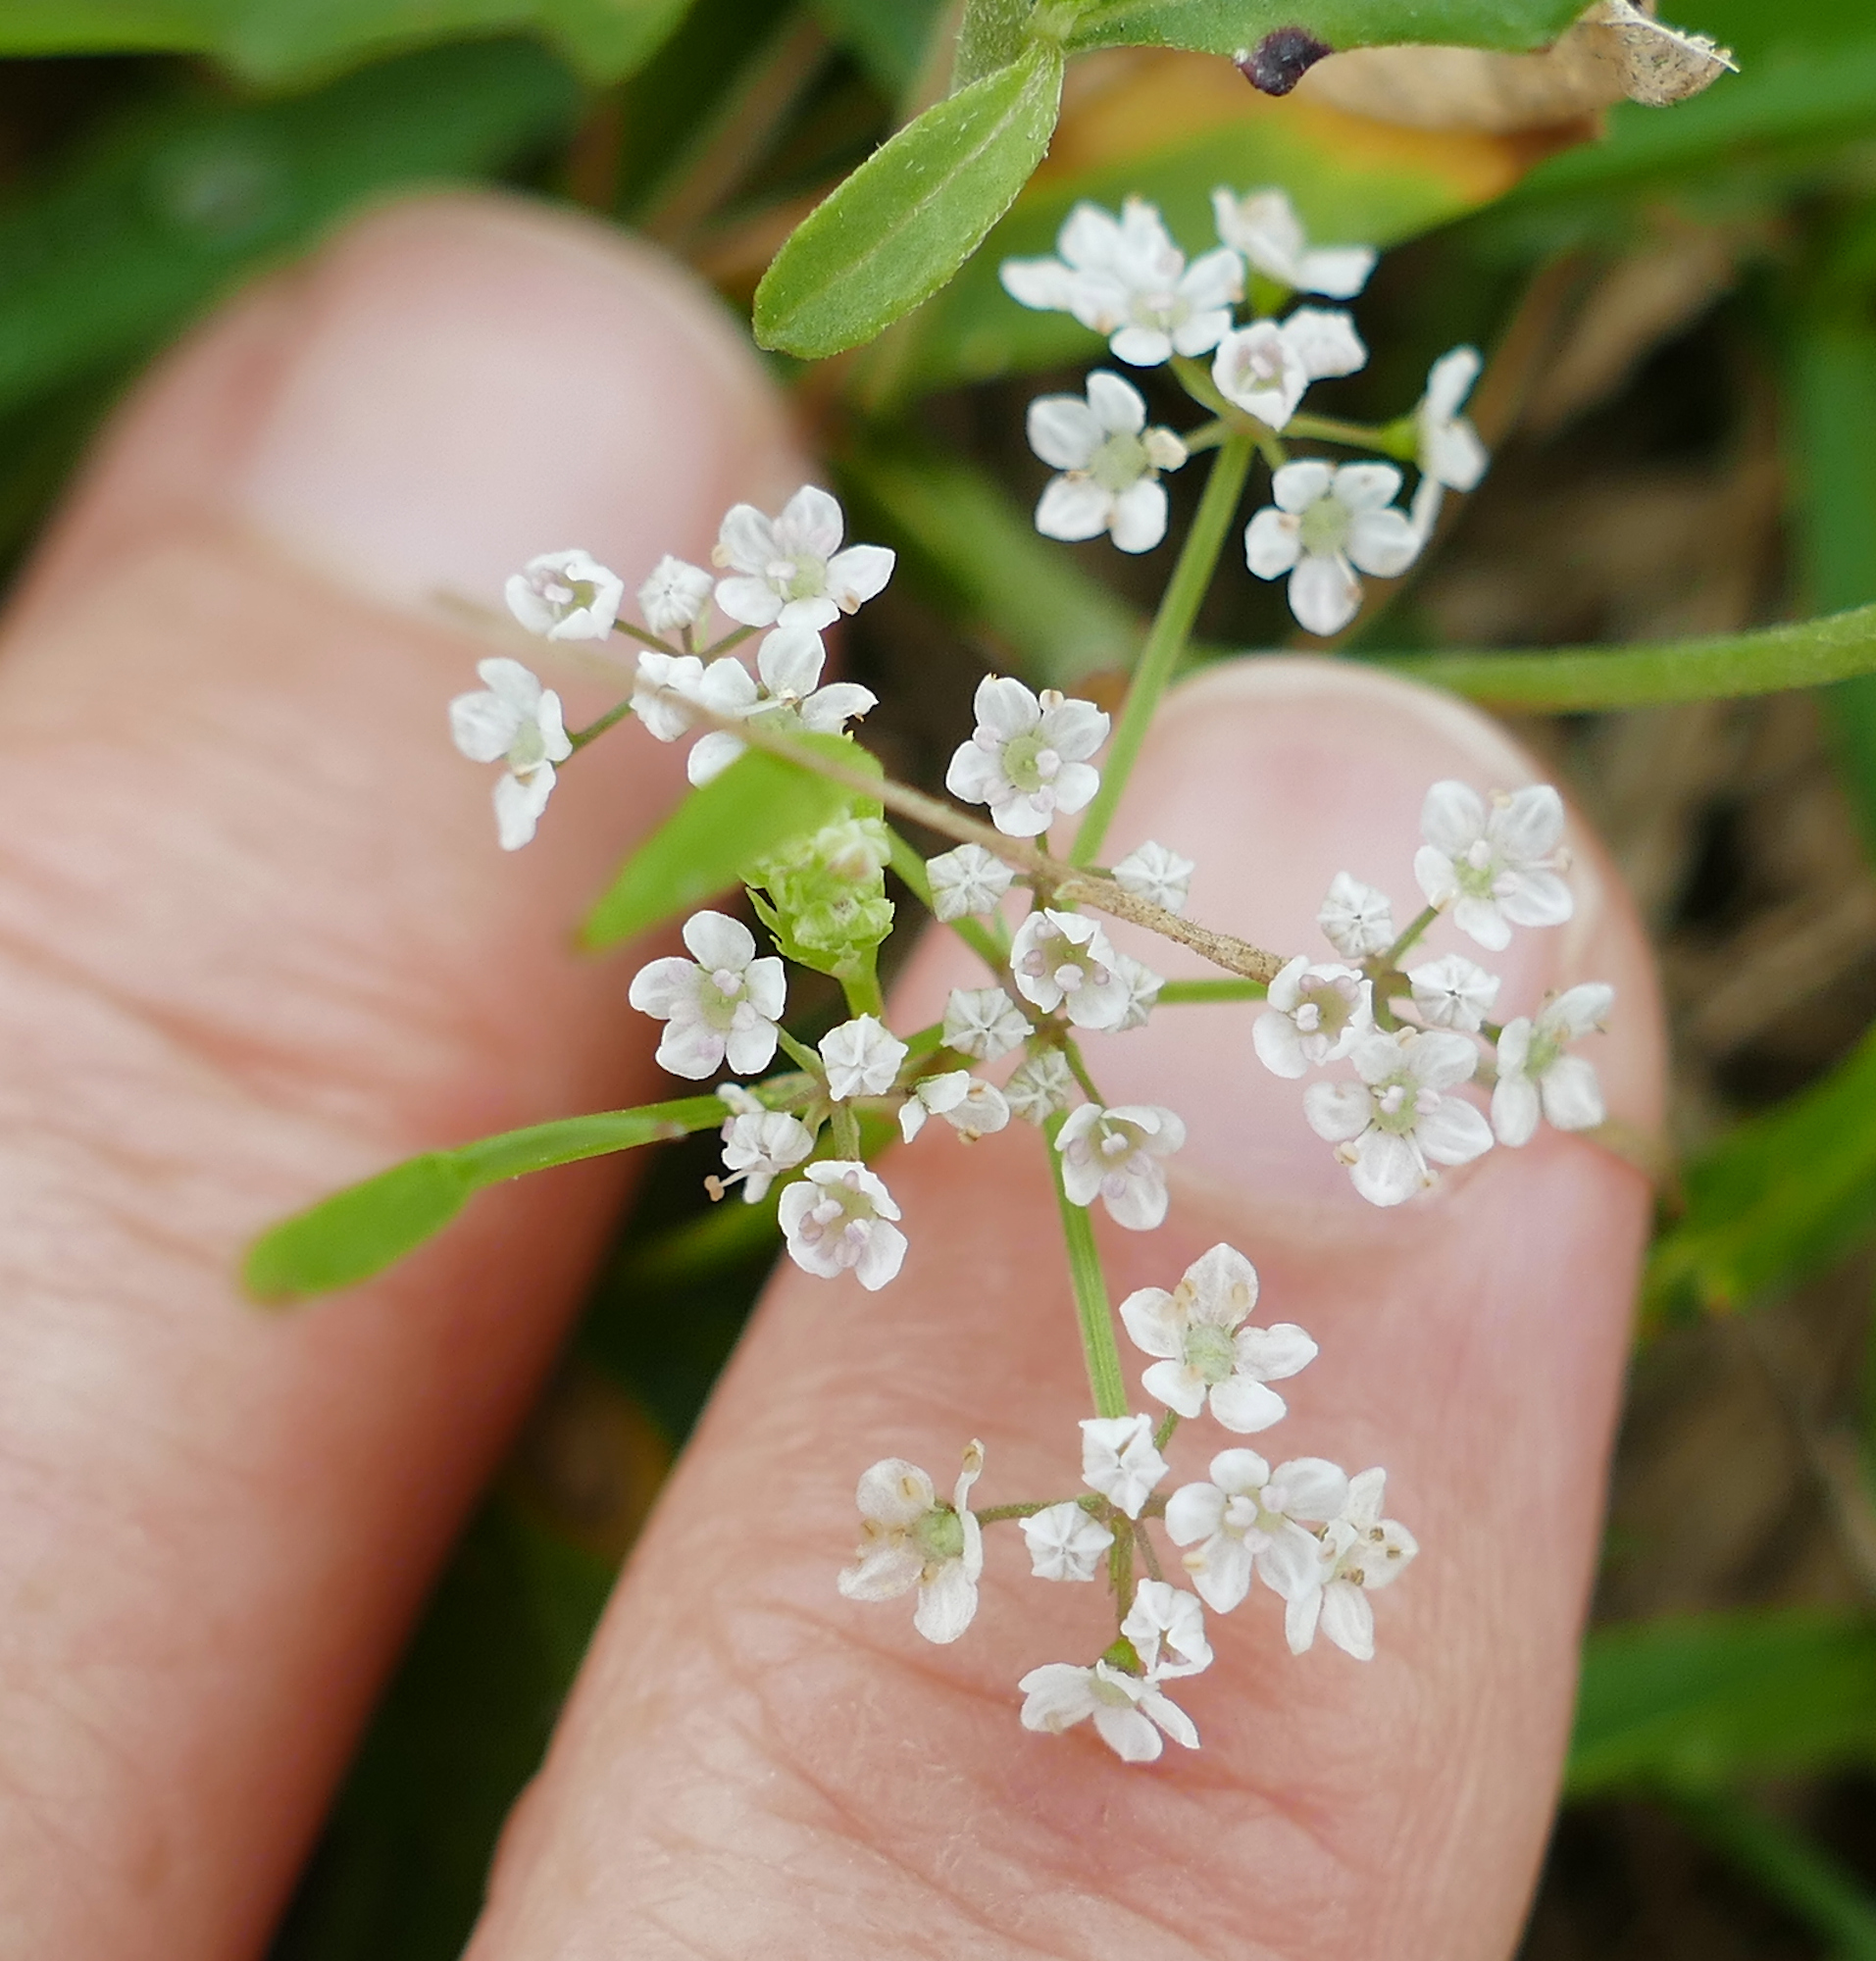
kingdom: Plantae
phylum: Tracheophyta
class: Magnoliopsida
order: Apiales
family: Apiaceae
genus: Limnosciadium
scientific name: Limnosciadium pinnatum
